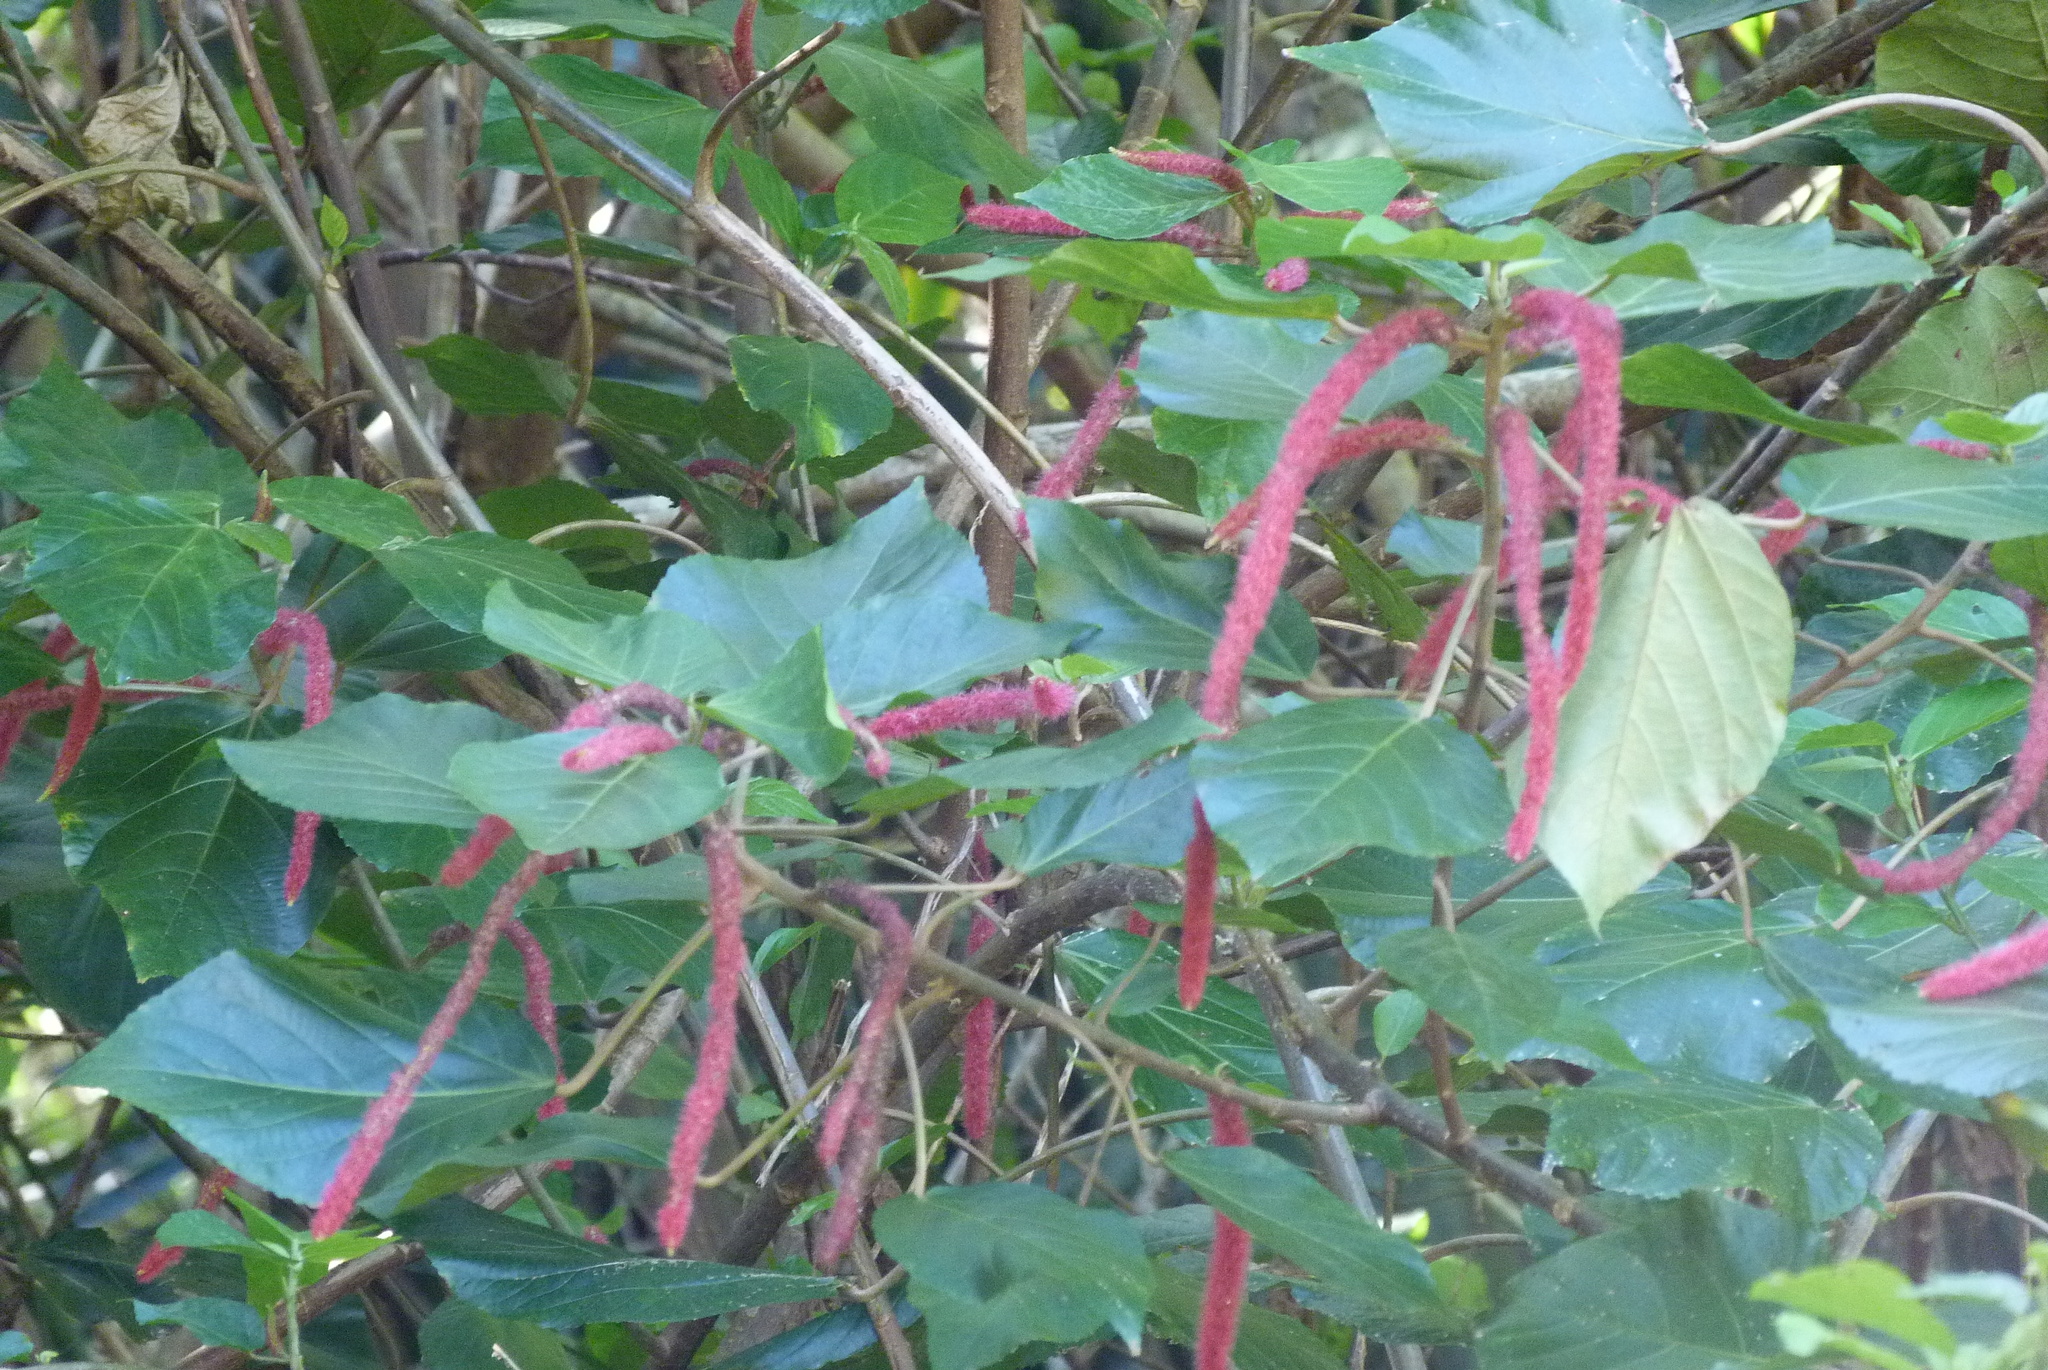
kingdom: Plantae
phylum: Tracheophyta
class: Magnoliopsida
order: Malpighiales
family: Euphorbiaceae
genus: Acalypha
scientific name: Acalypha hispida
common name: Chenilleplant
